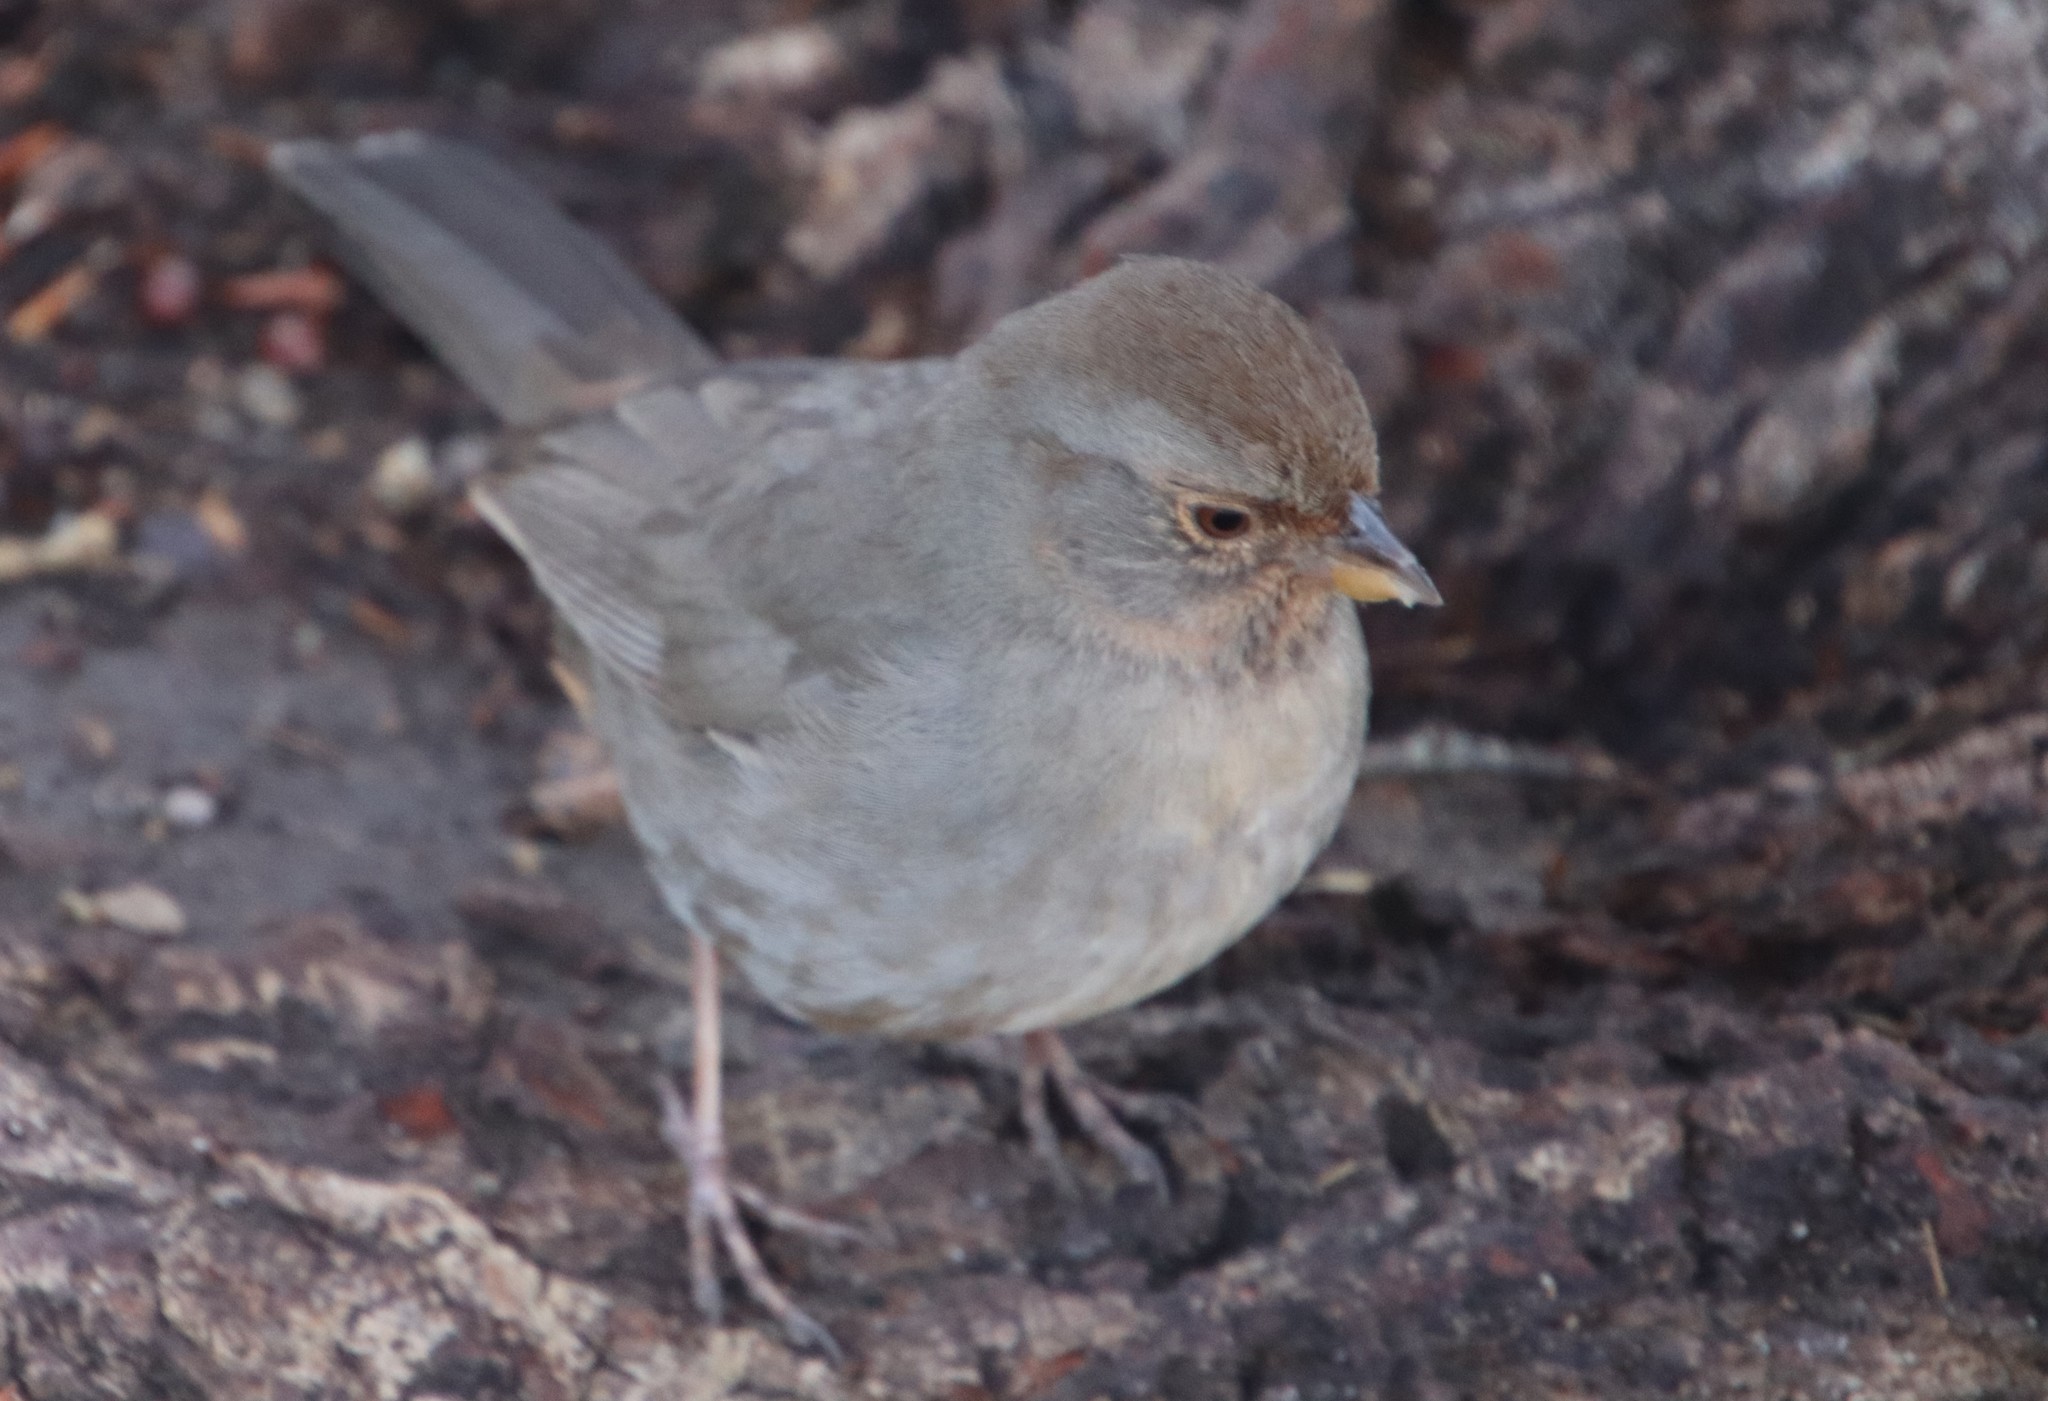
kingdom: Animalia
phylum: Chordata
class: Aves
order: Passeriformes
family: Passerellidae
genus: Melozone
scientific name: Melozone crissalis
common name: California towhee
